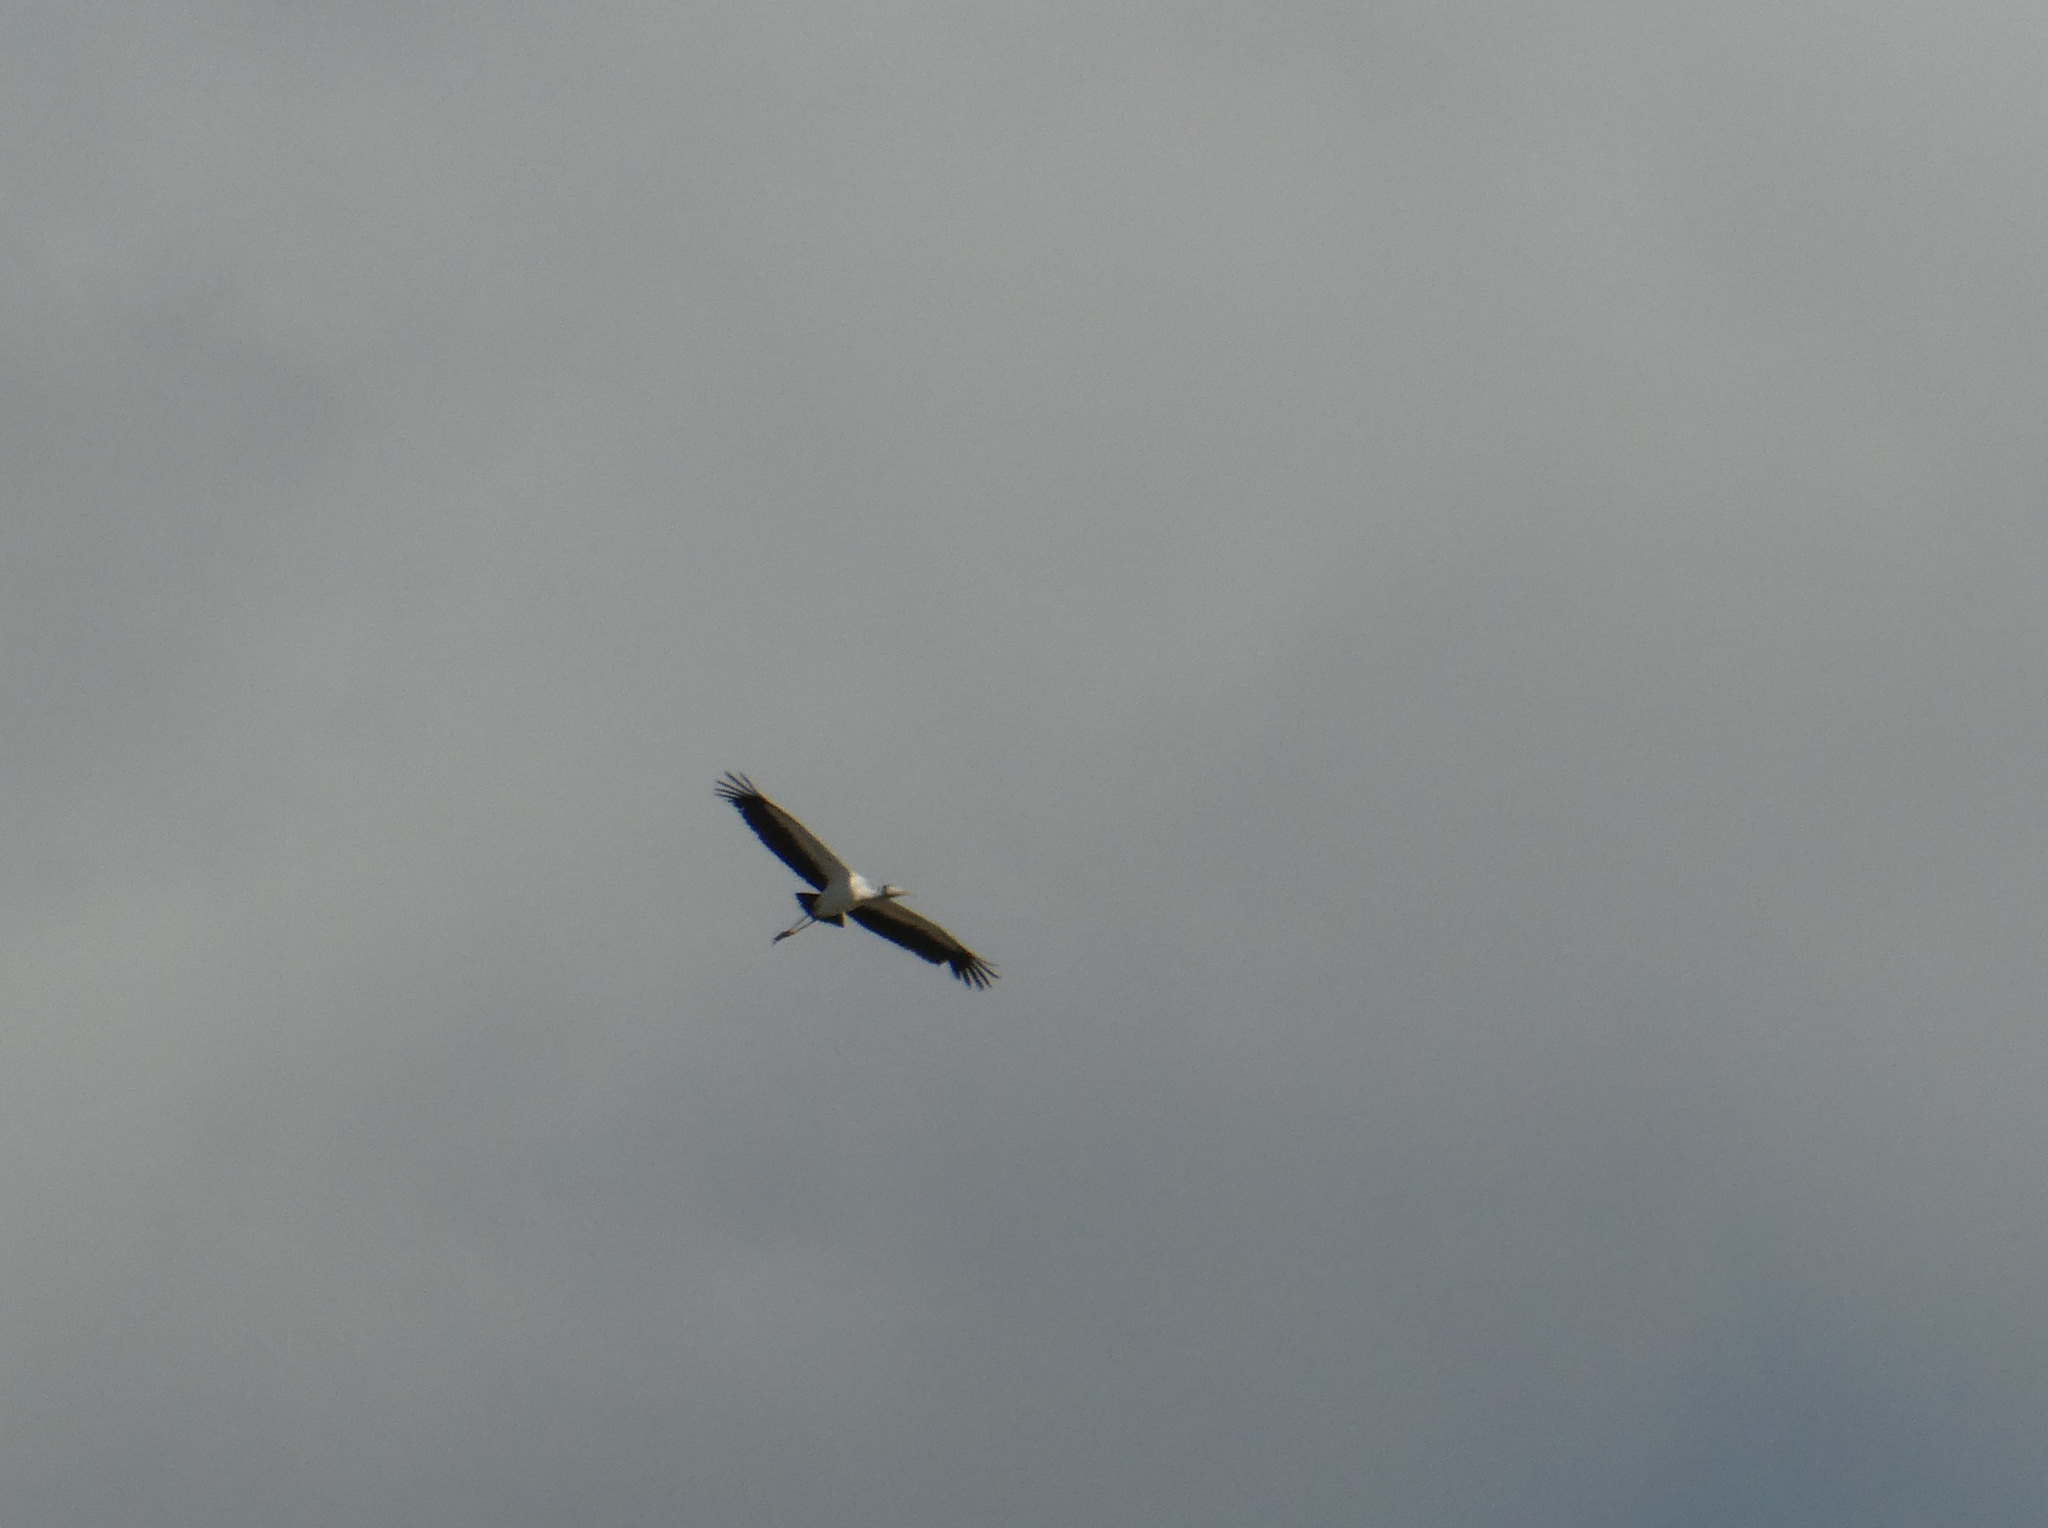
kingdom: Animalia
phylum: Chordata
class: Aves
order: Ciconiiformes
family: Ciconiidae
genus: Mycteria
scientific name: Mycteria americana
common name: Wood stork
